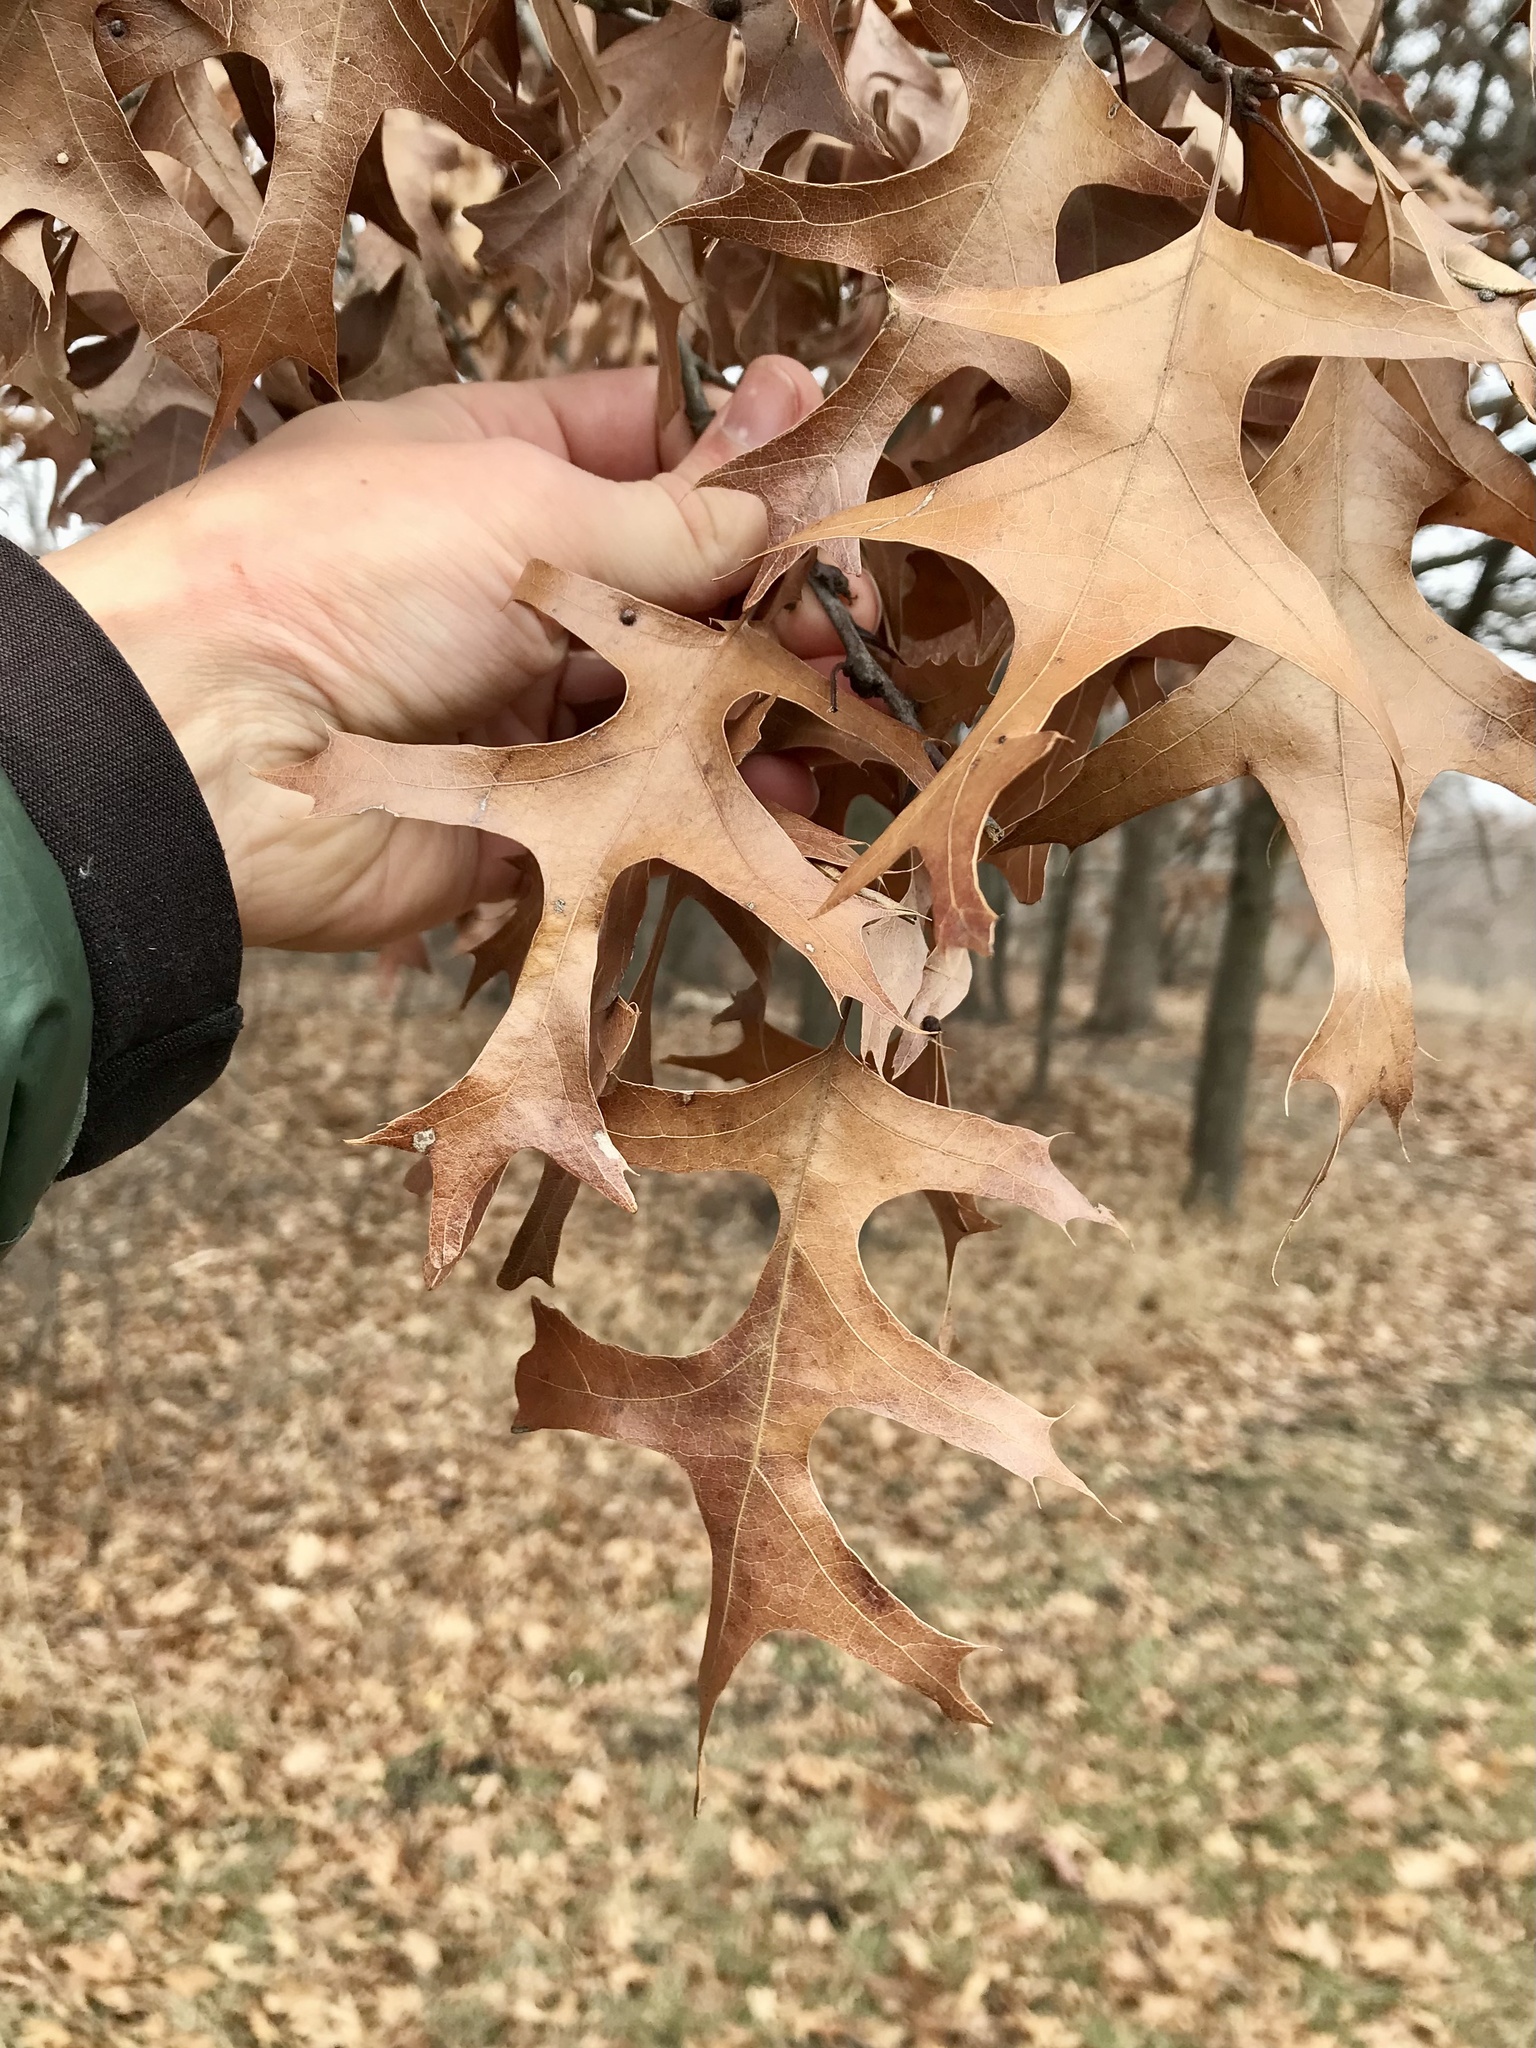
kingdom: Plantae
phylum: Tracheophyta
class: Magnoliopsida
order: Fagales
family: Fagaceae
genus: Quercus
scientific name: Quercus ellipsoidalis
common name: Hill's oak
